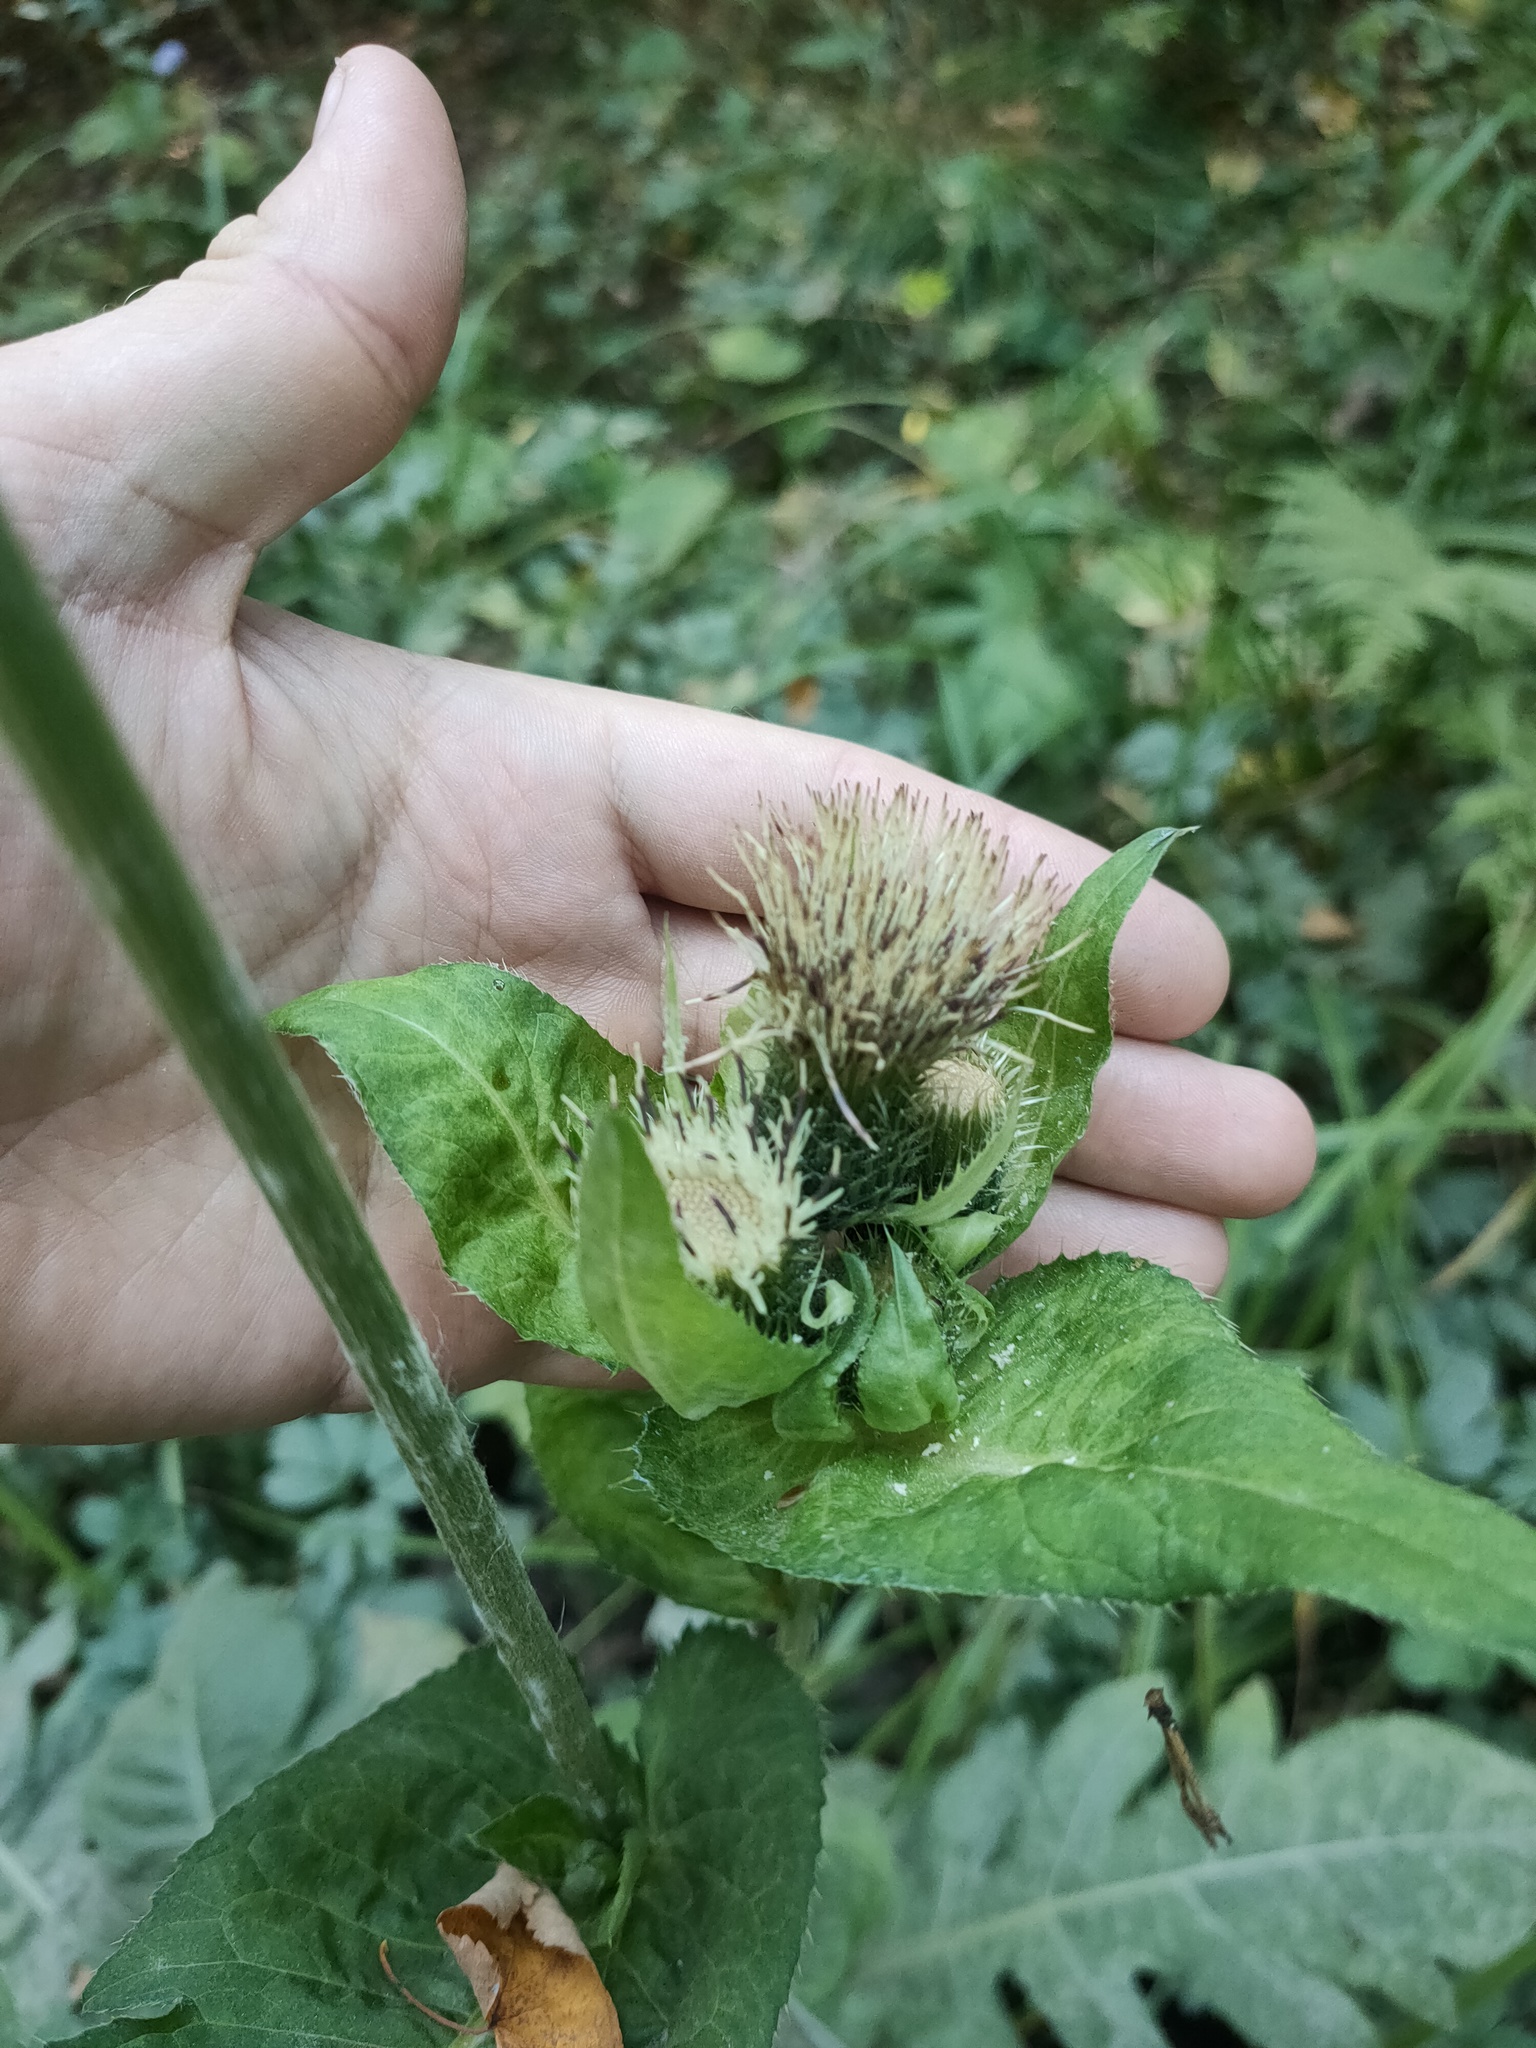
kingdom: Plantae
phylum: Tracheophyta
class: Magnoliopsida
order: Asterales
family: Asteraceae
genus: Cirsium
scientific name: Cirsium oleraceum
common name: Cabbage thistle
